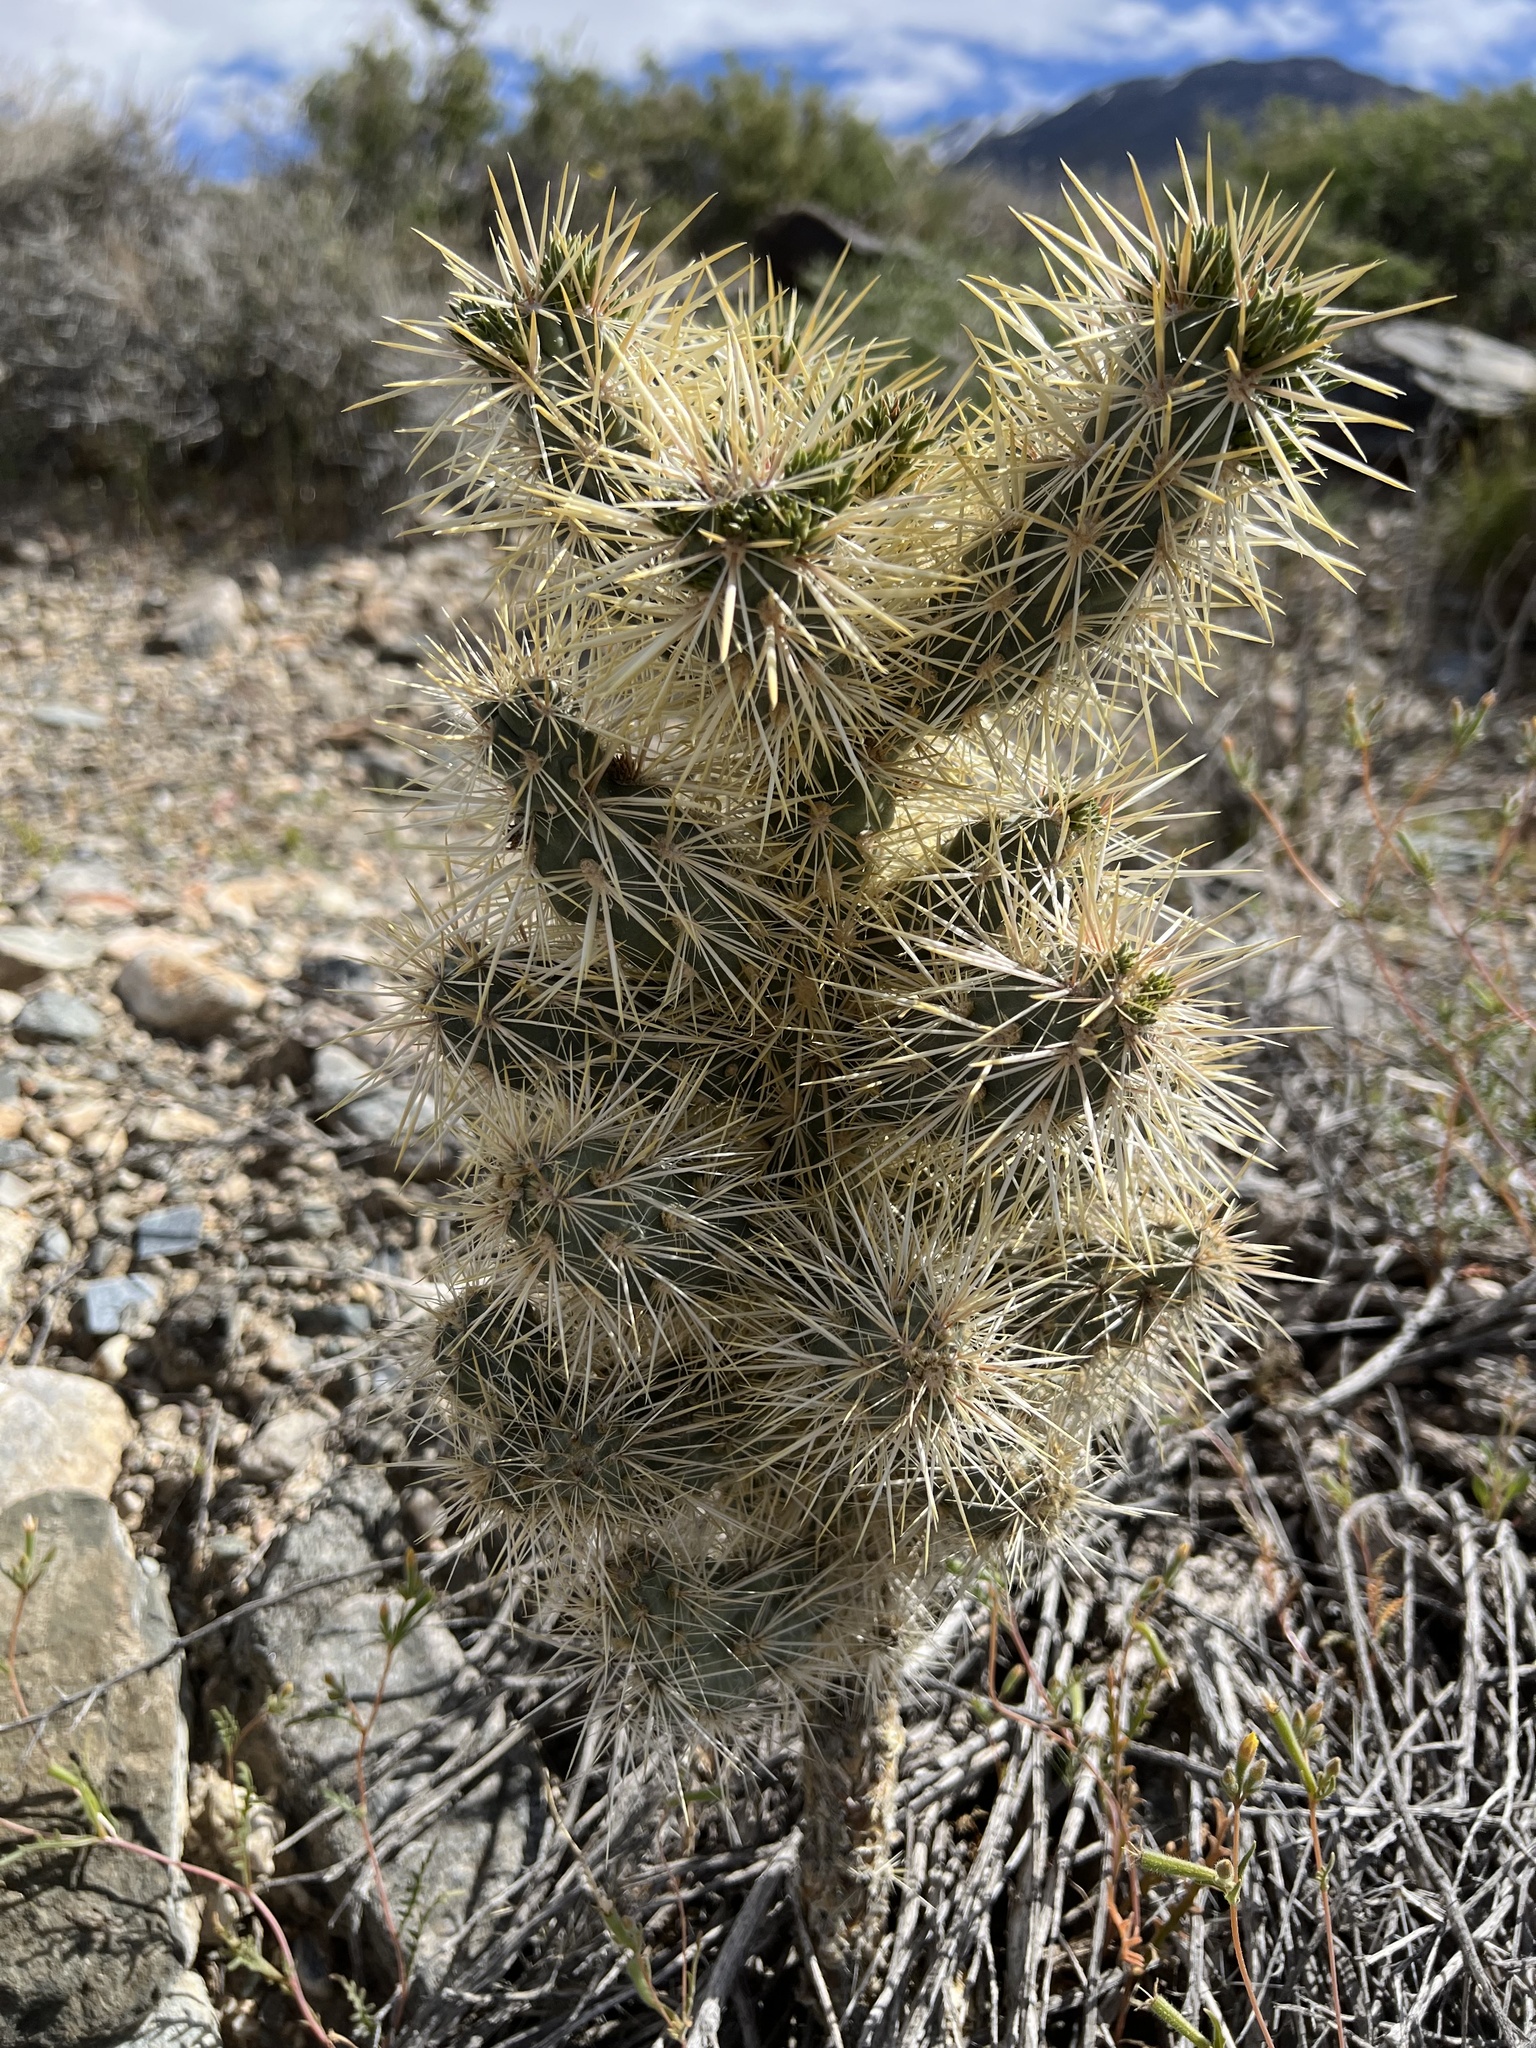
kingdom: Plantae
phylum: Tracheophyta
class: Magnoliopsida
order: Caryophyllales
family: Cactaceae
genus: Cylindropuntia
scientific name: Cylindropuntia echinocarpa
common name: Ground cholla
